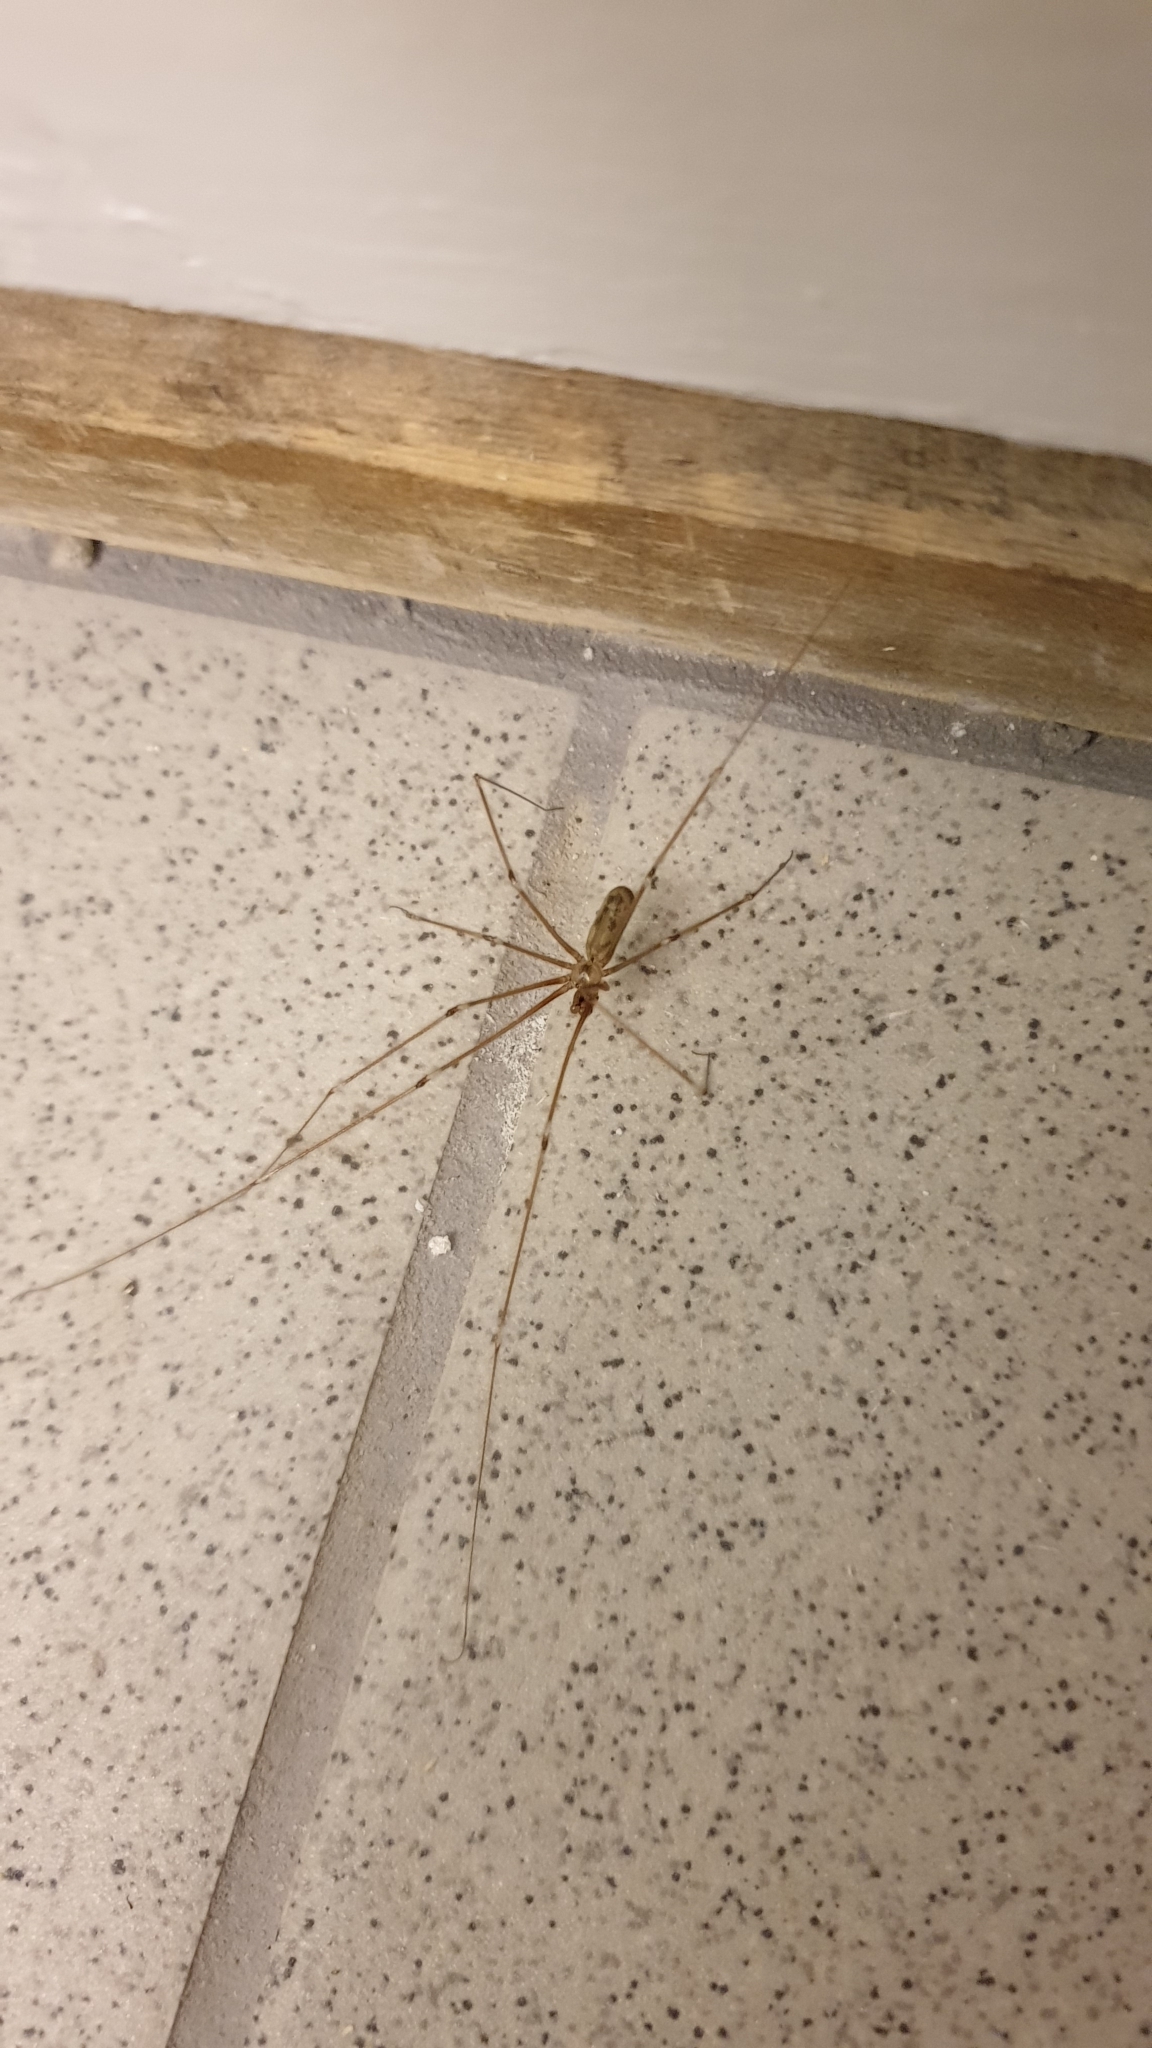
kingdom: Animalia
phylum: Arthropoda
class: Arachnida
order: Araneae
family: Pholcidae
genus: Pholcus
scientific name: Pholcus phalangioides
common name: Longbodied cellar spider
